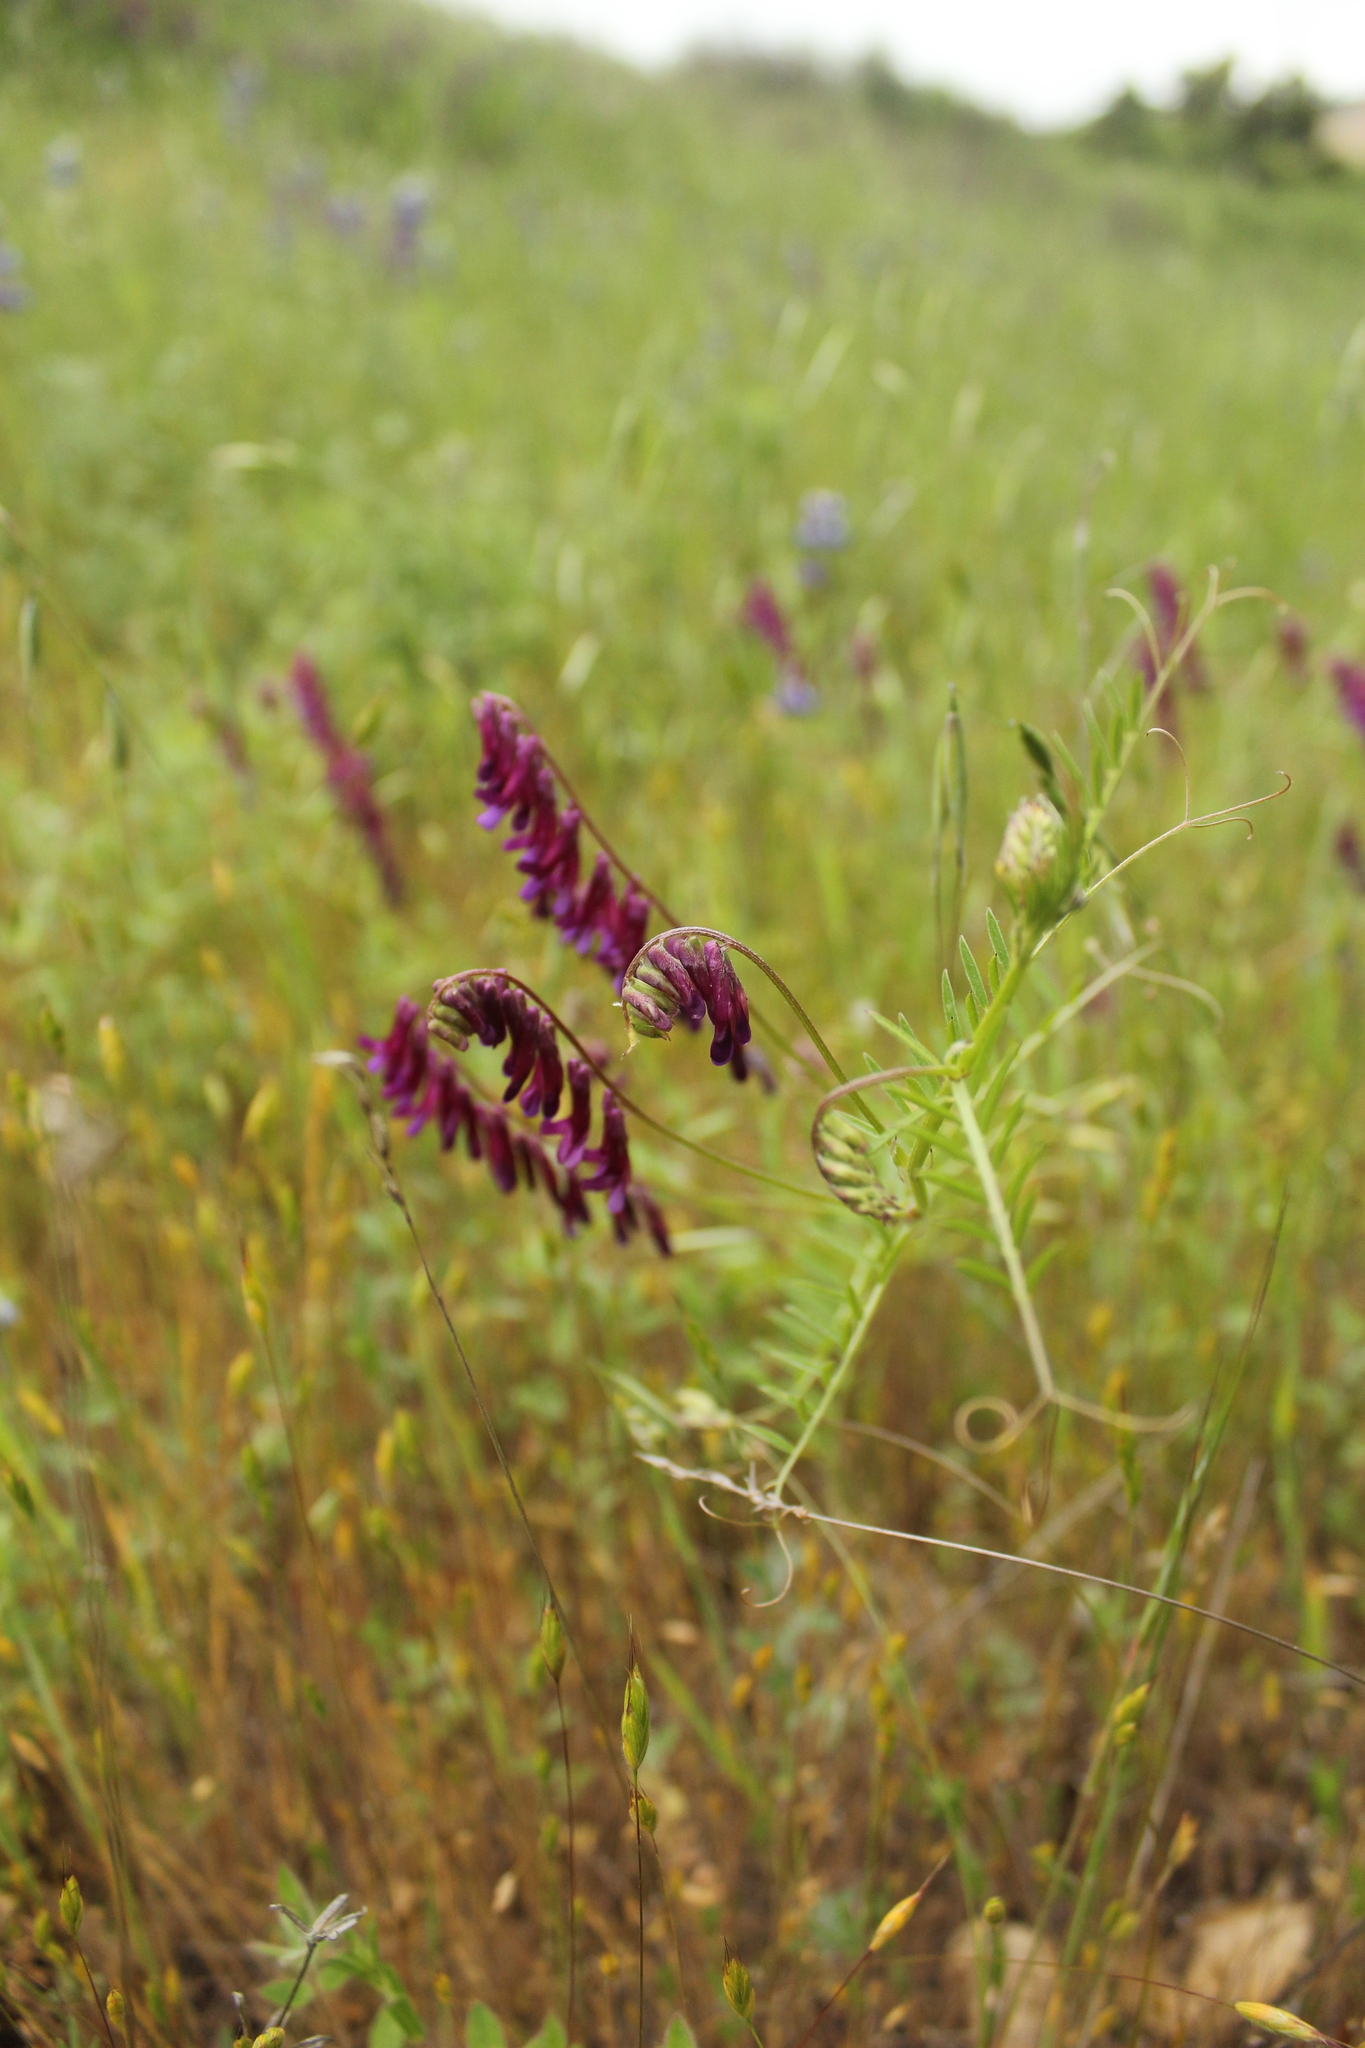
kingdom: Plantae
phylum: Tracheophyta
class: Magnoliopsida
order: Fabales
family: Fabaceae
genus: Vicia
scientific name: Vicia villosa
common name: Fodder vetch
